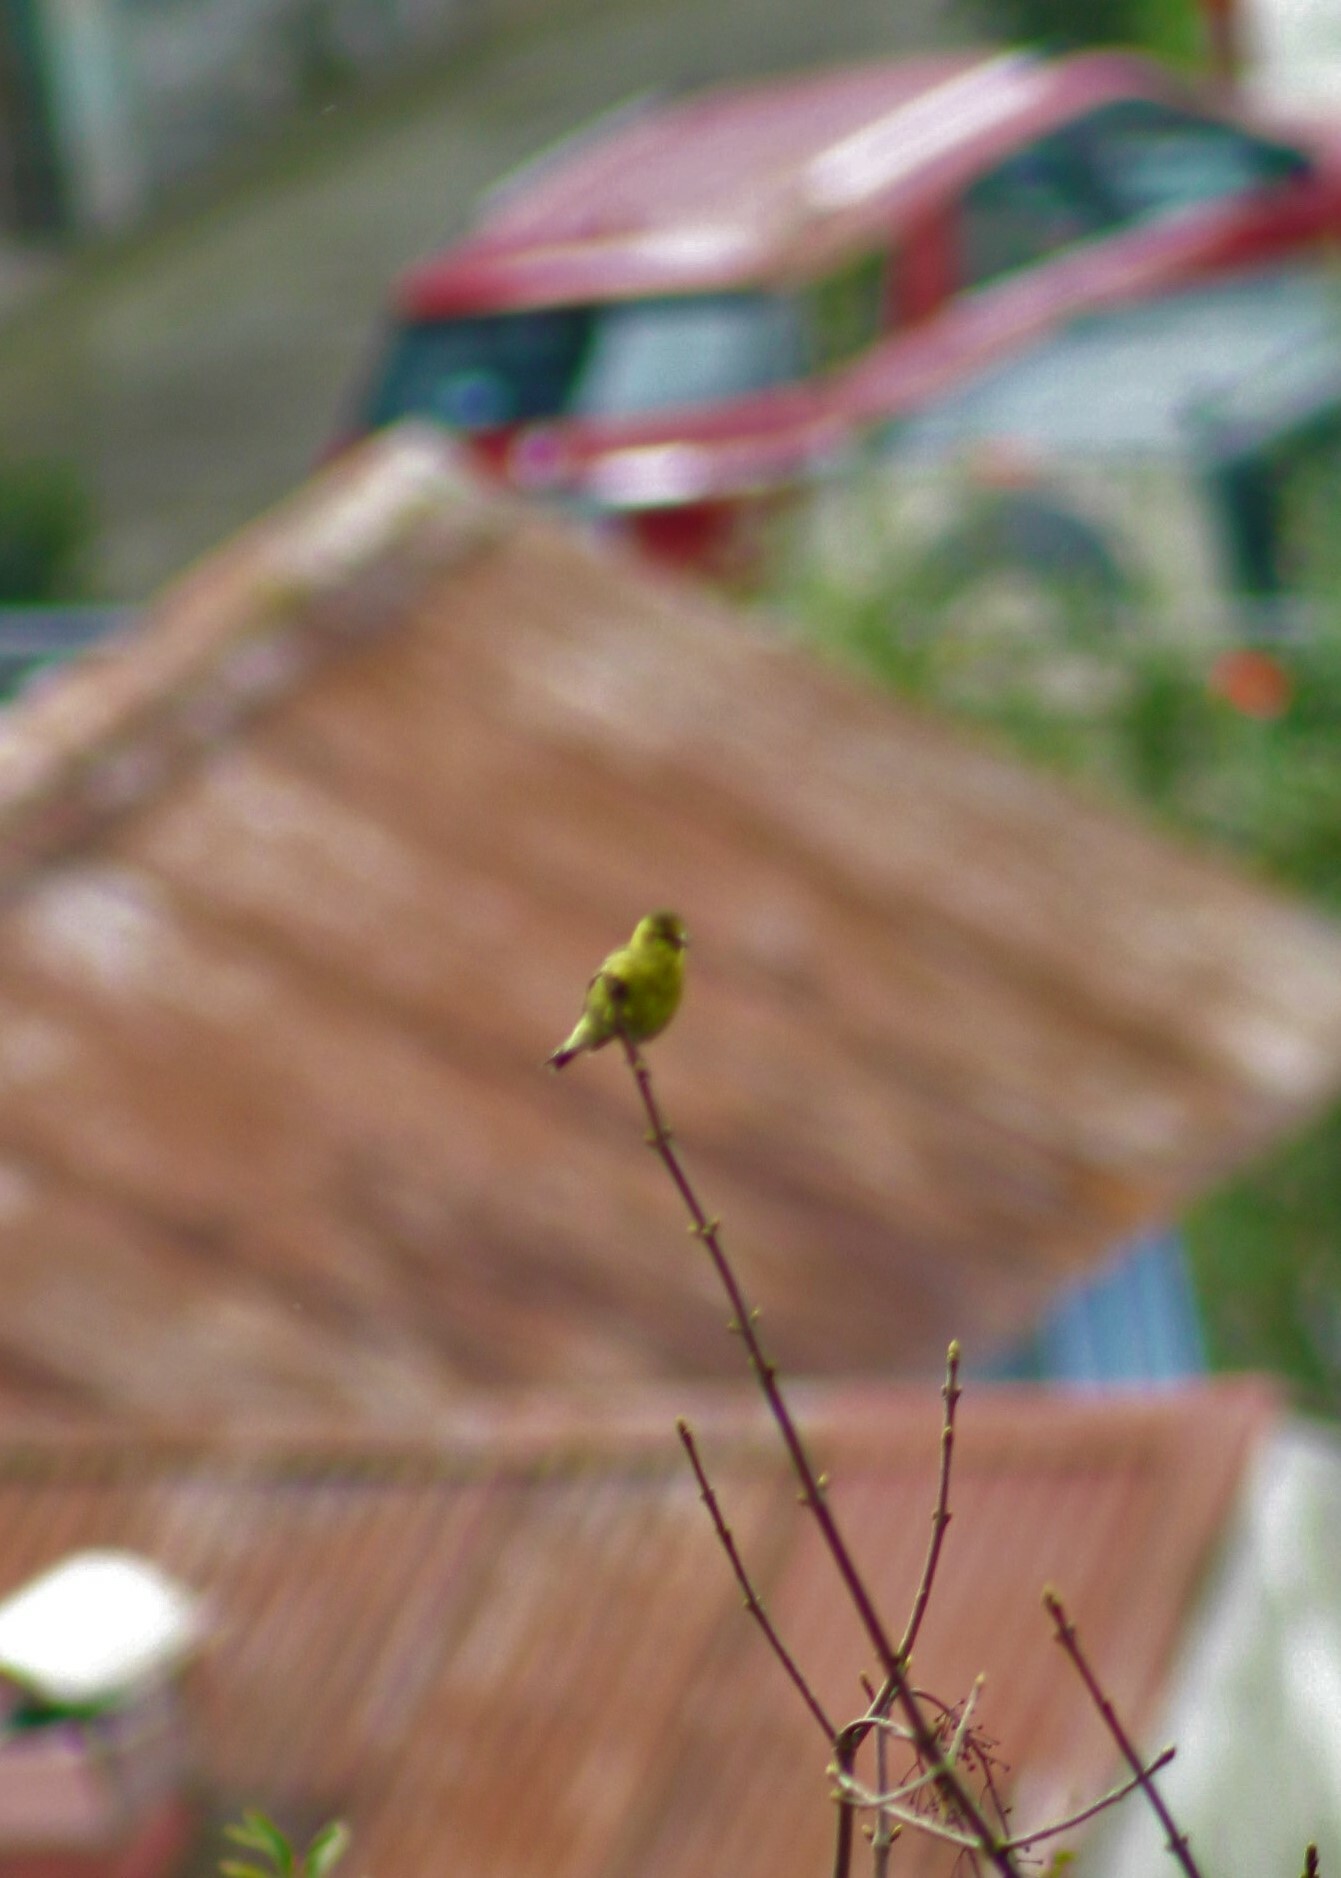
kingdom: Animalia
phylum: Chordata
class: Aves
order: Passeriformes
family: Fringillidae
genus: Spinus
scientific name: Spinus barbatus
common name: Black-chinned siskin
